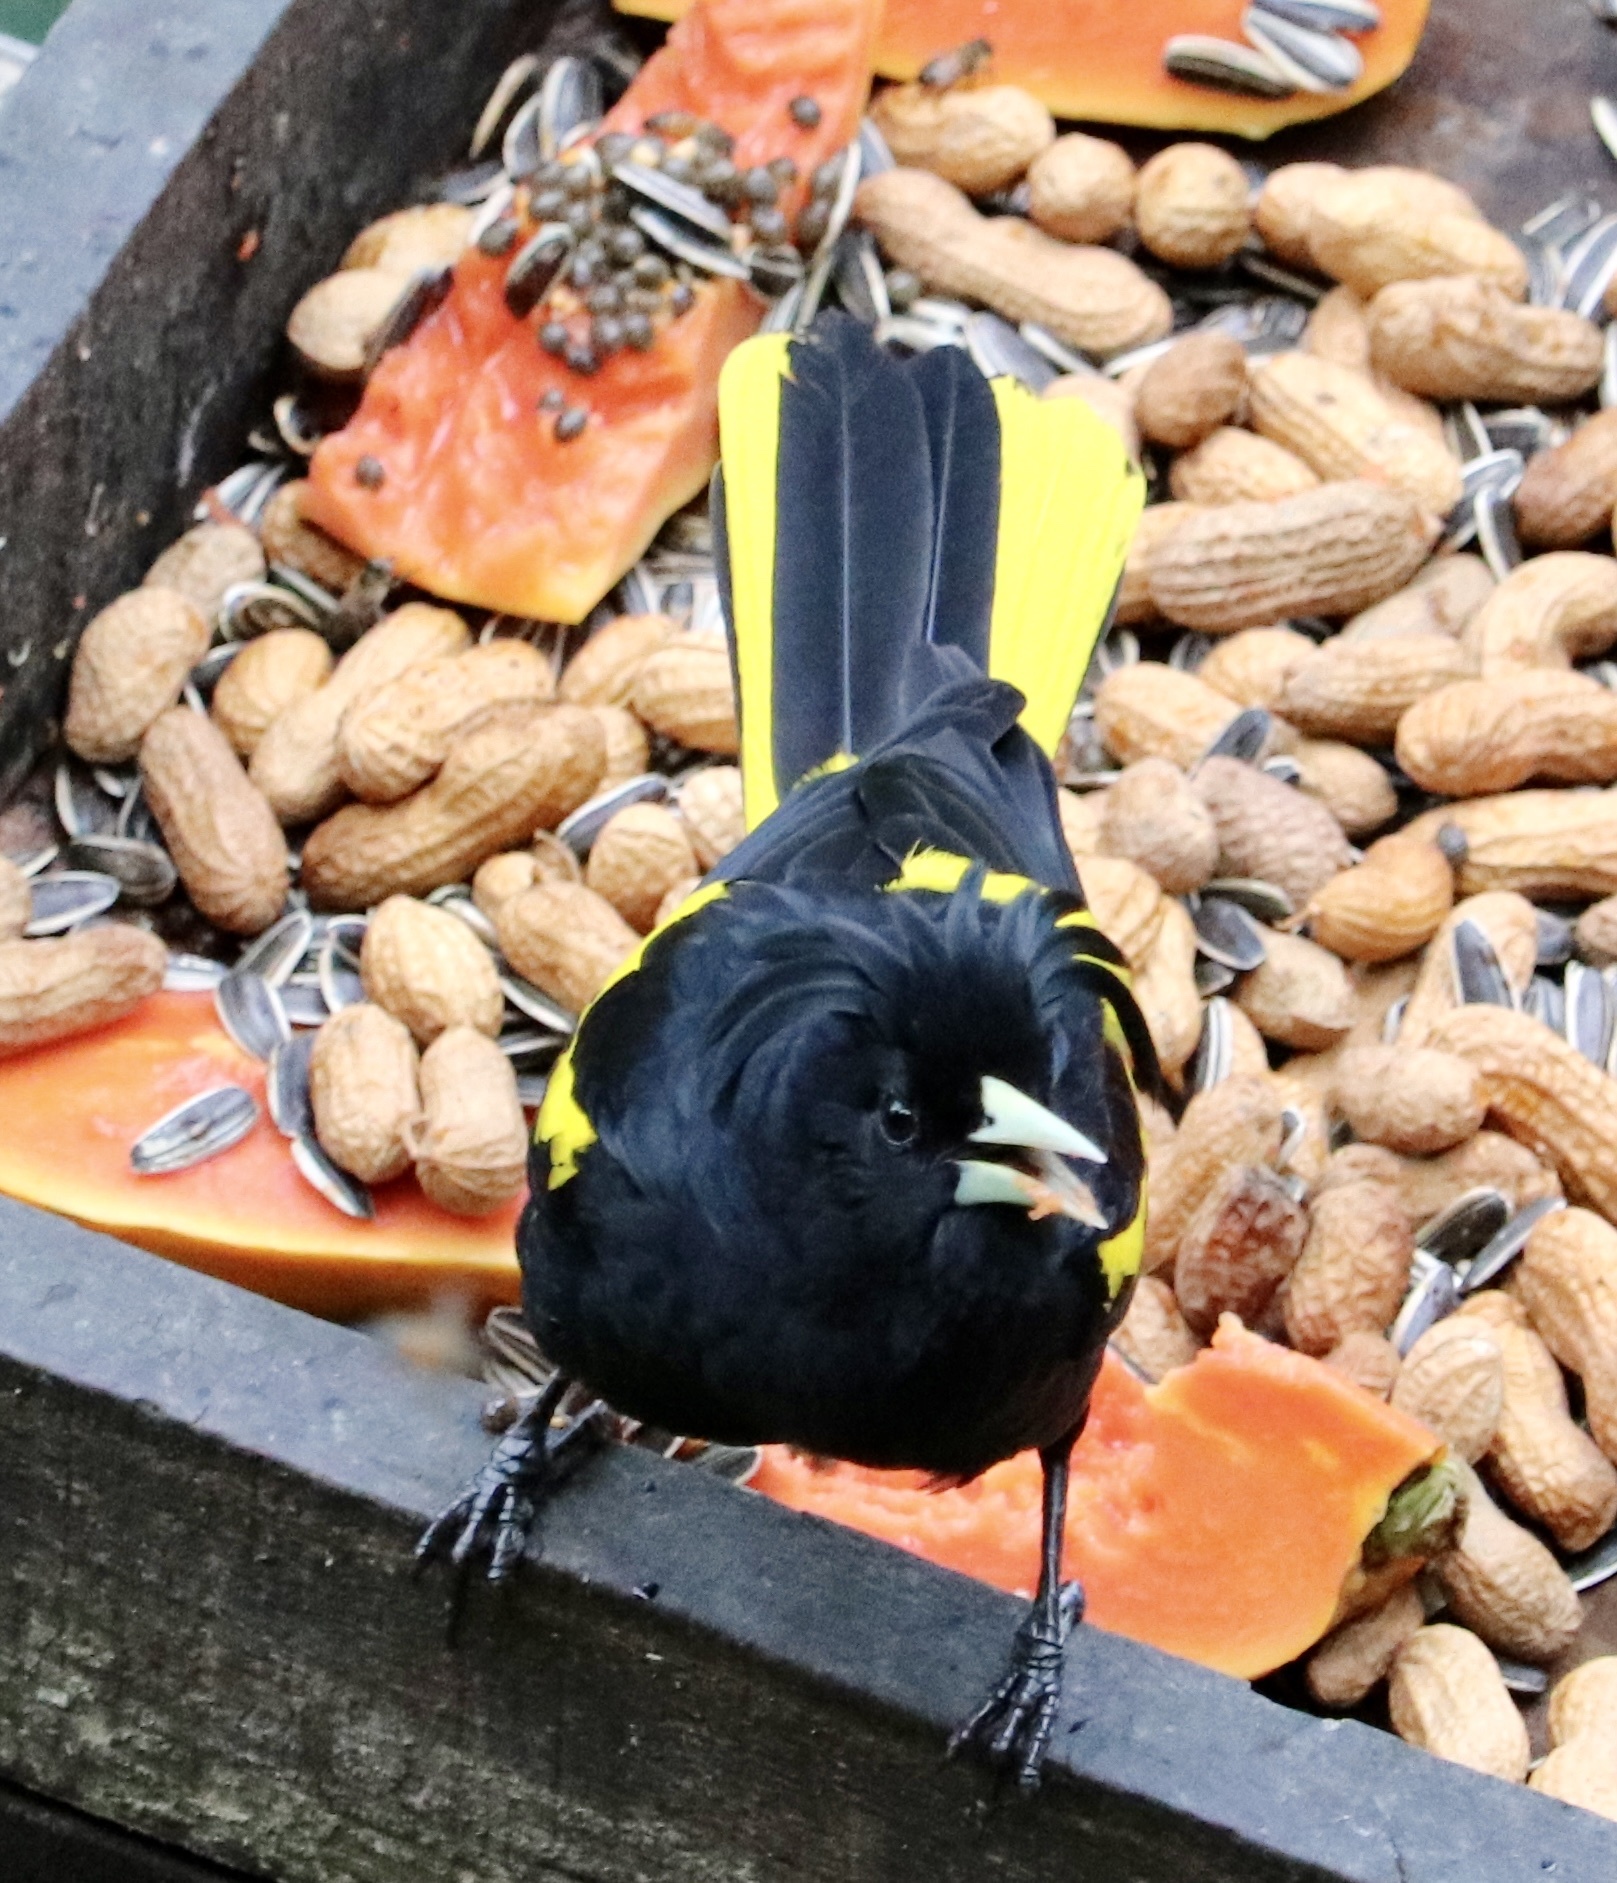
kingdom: Animalia
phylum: Chordata
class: Aves
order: Passeriformes
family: Icteridae
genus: Cacicus
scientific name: Cacicus melanicterus
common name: Yellow-winged cacique
